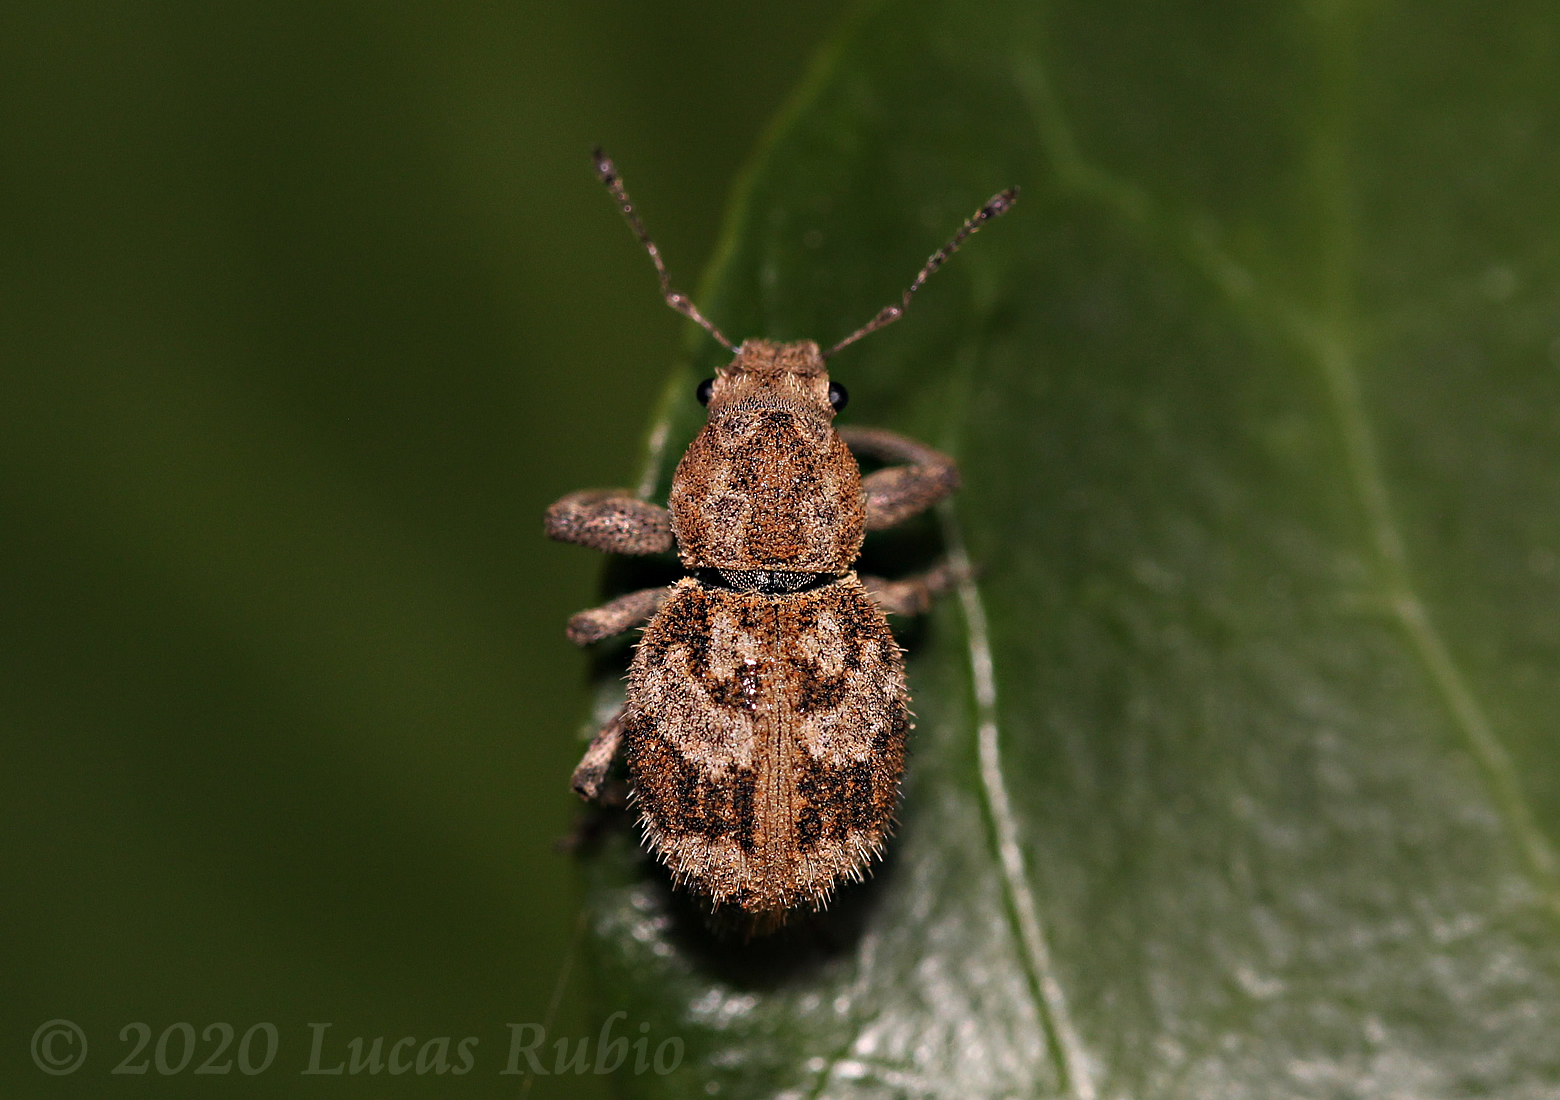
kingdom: Animalia
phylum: Arthropoda
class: Insecta
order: Coleoptera
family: Curculionidae
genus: Pantomorus
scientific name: Pantomorus
